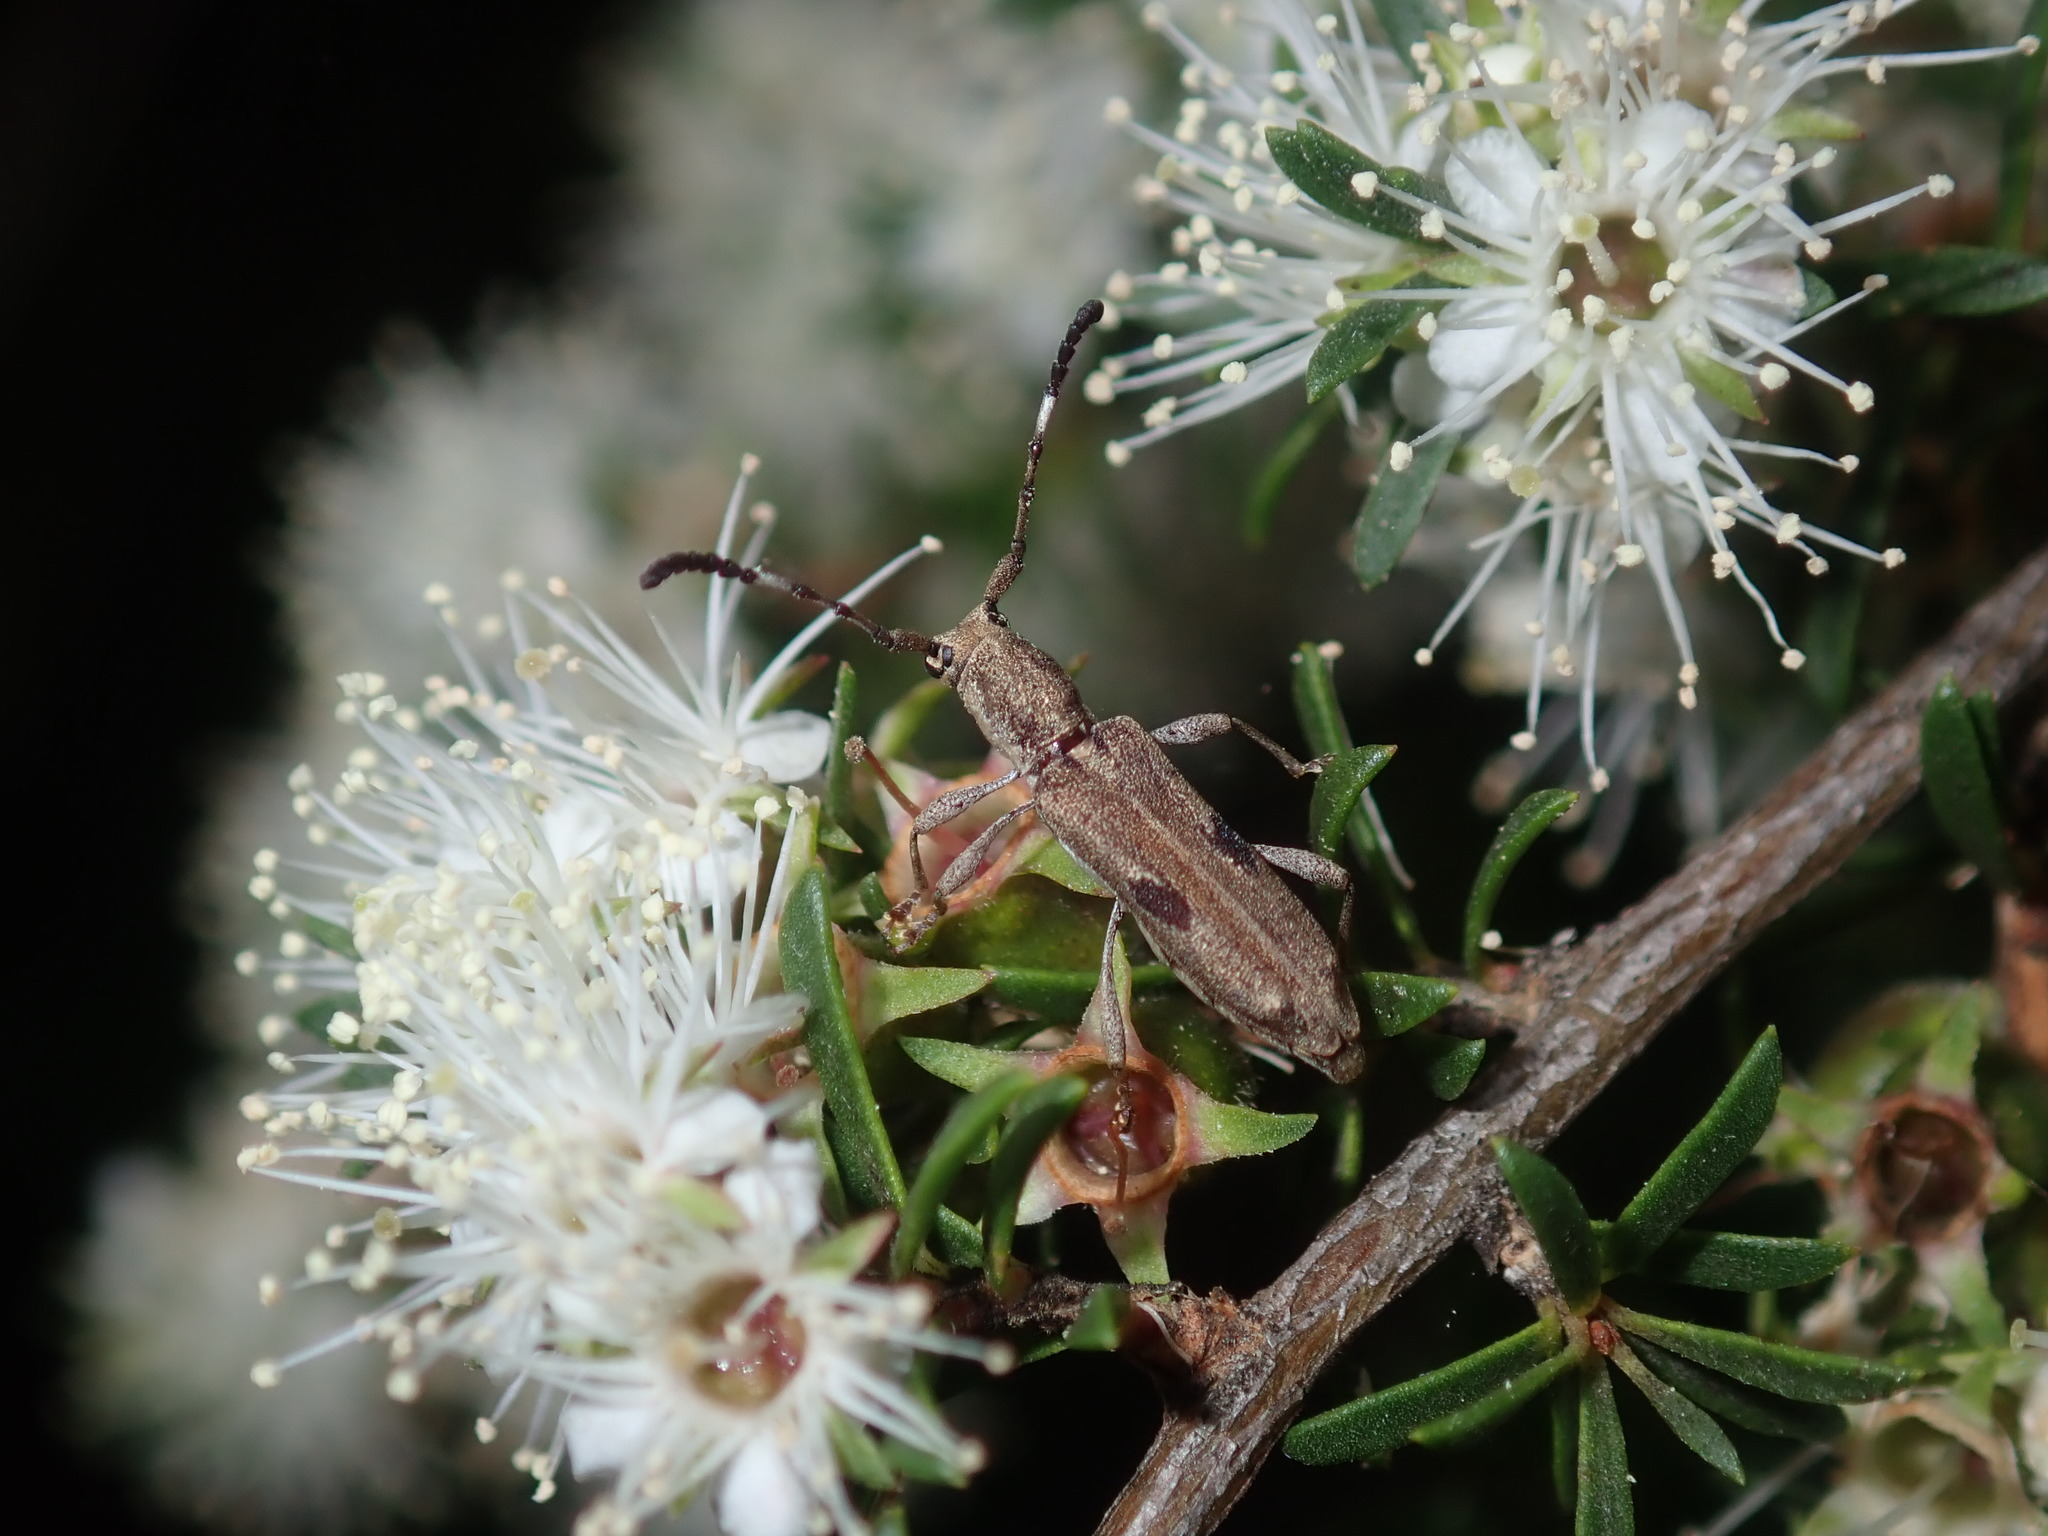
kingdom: Animalia
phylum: Arthropoda
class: Insecta
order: Coleoptera
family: Cerambycidae
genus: Pempsamacra
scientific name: Pempsamacra tillides
